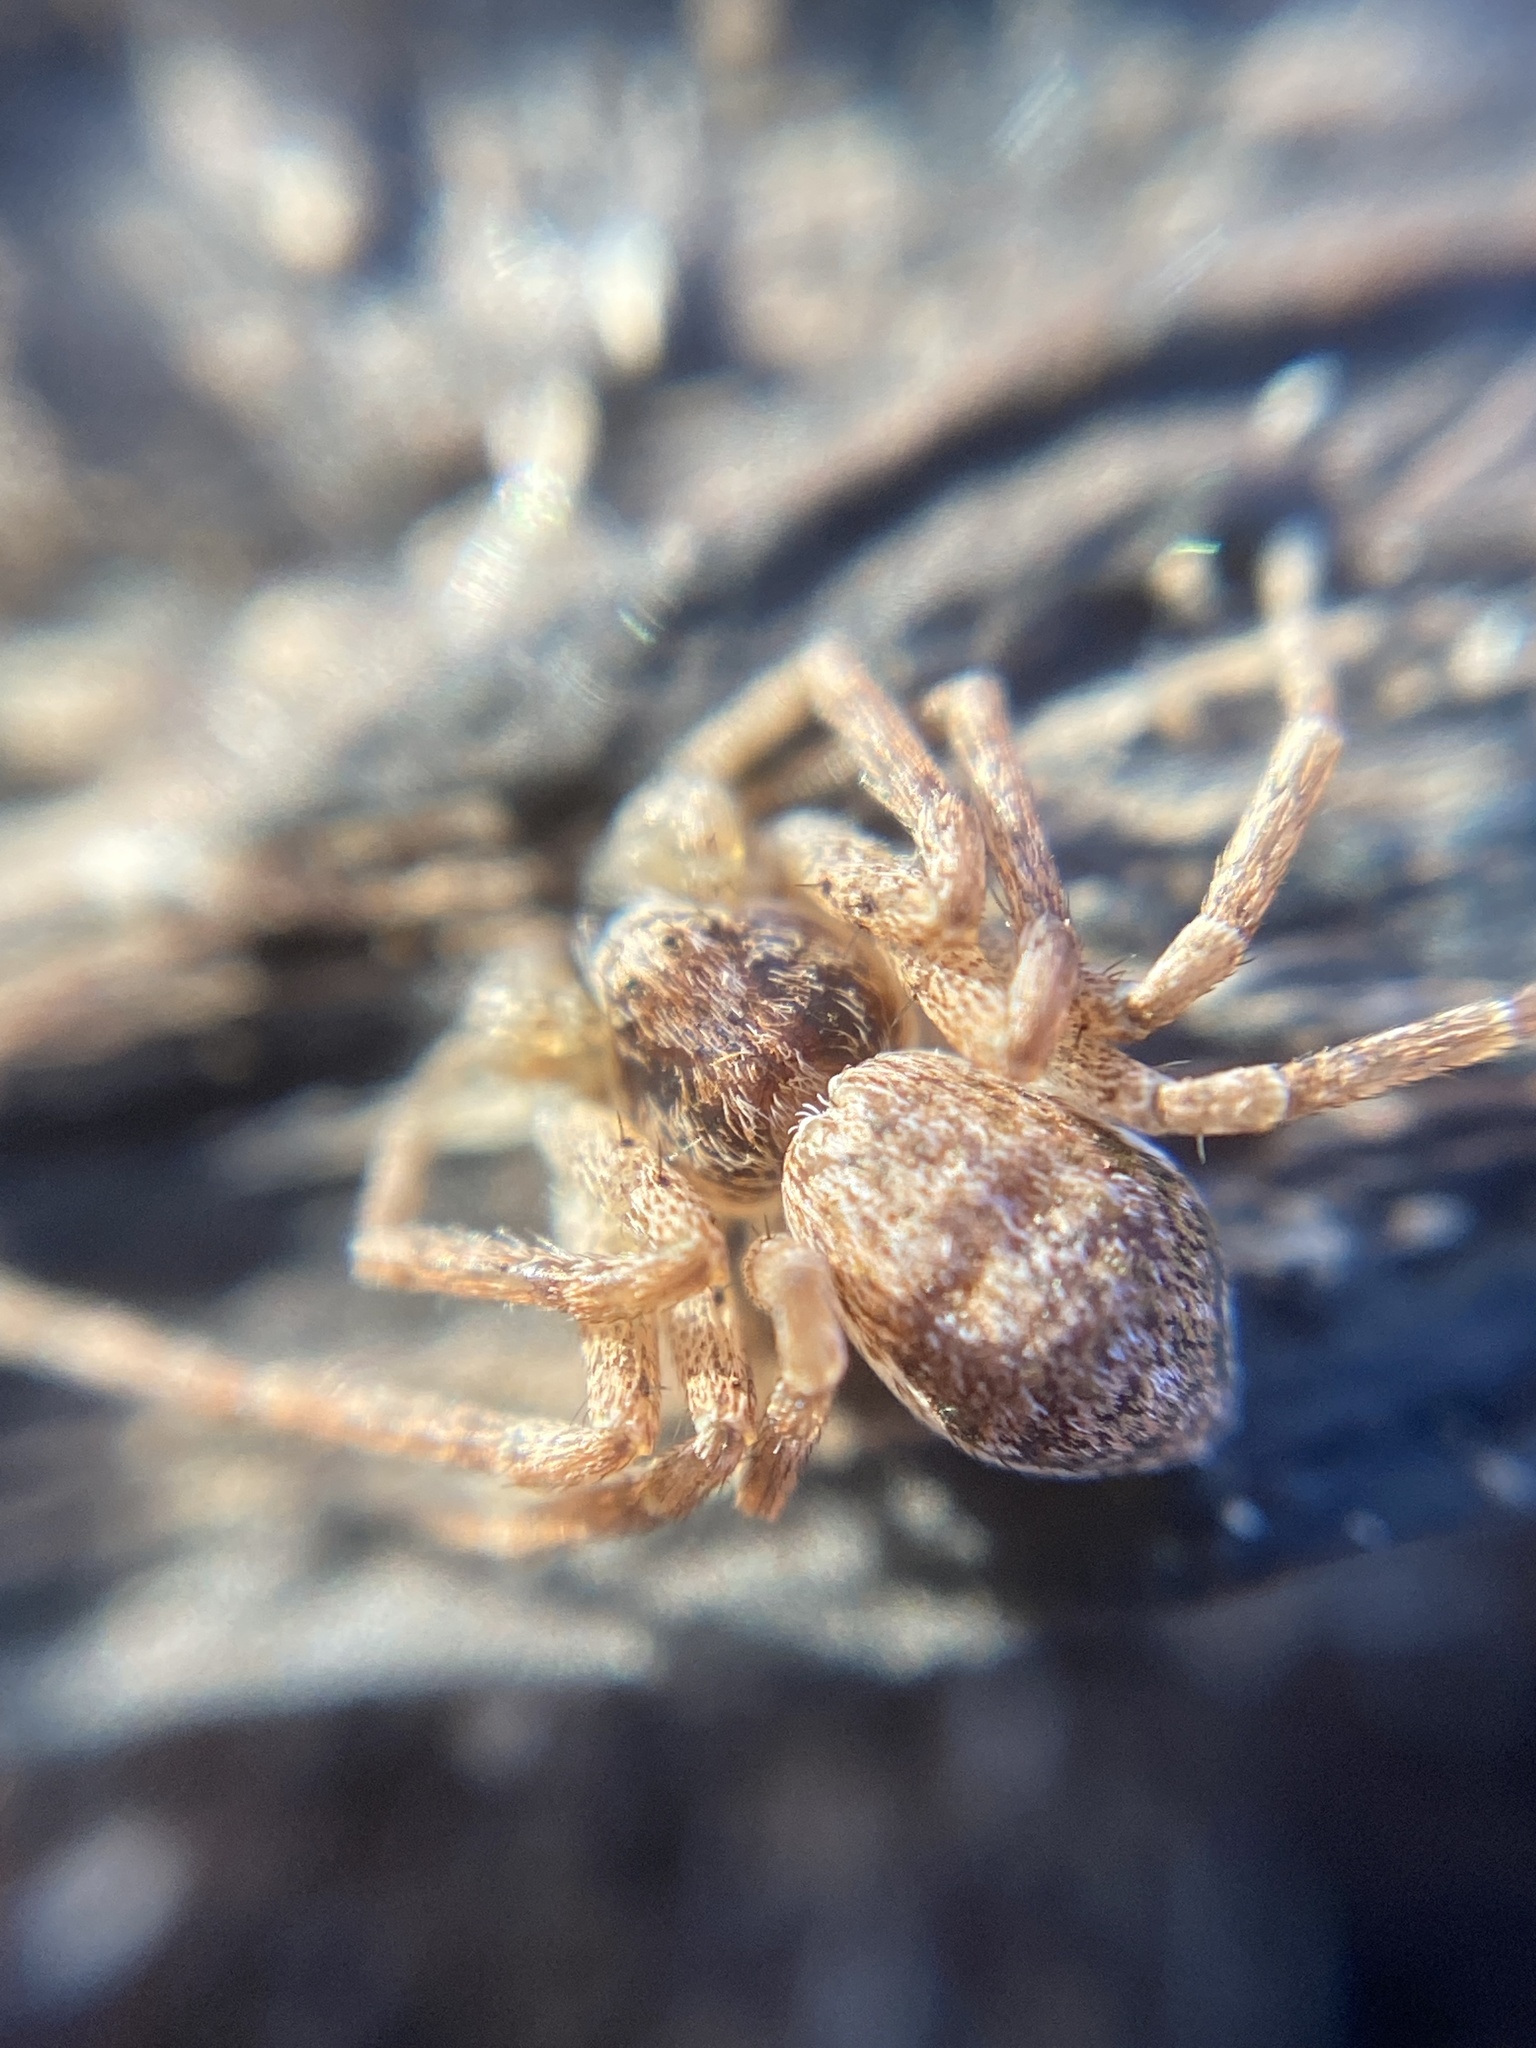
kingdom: Animalia
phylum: Arthropoda
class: Arachnida
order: Araneae
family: Philodromidae
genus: Philodromus
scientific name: Philodromus dispar
